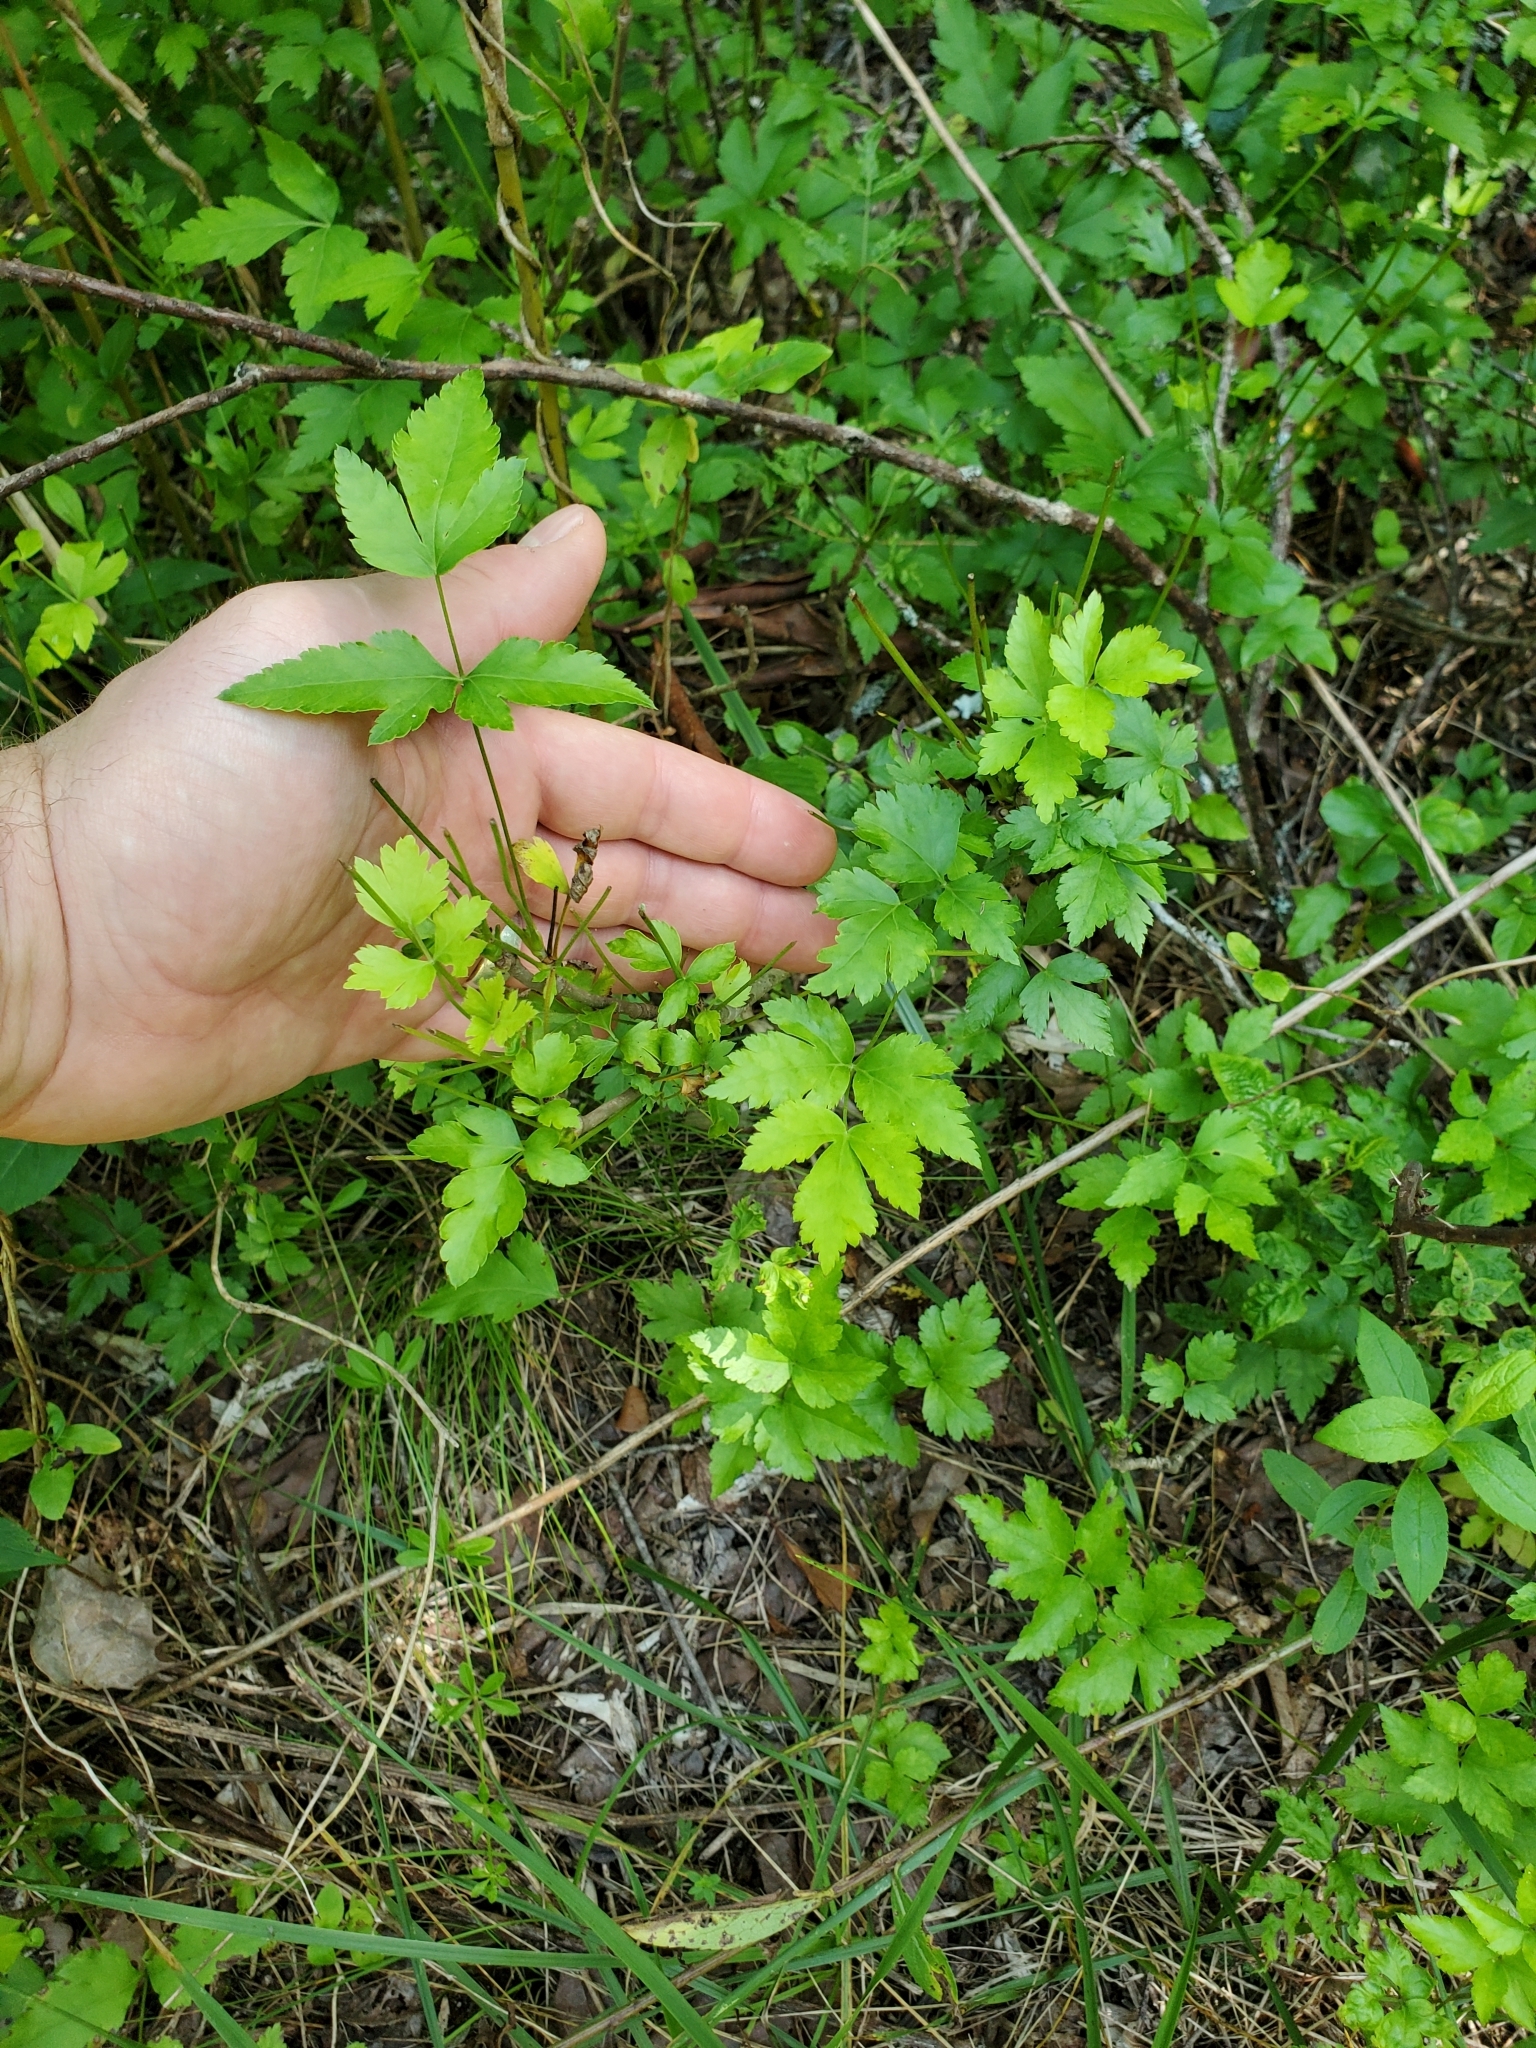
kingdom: Plantae
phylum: Tracheophyta
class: Magnoliopsida
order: Ranunculales
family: Ranunculaceae
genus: Xanthorhiza
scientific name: Xanthorhiza simplicissima
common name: Yellowroot
